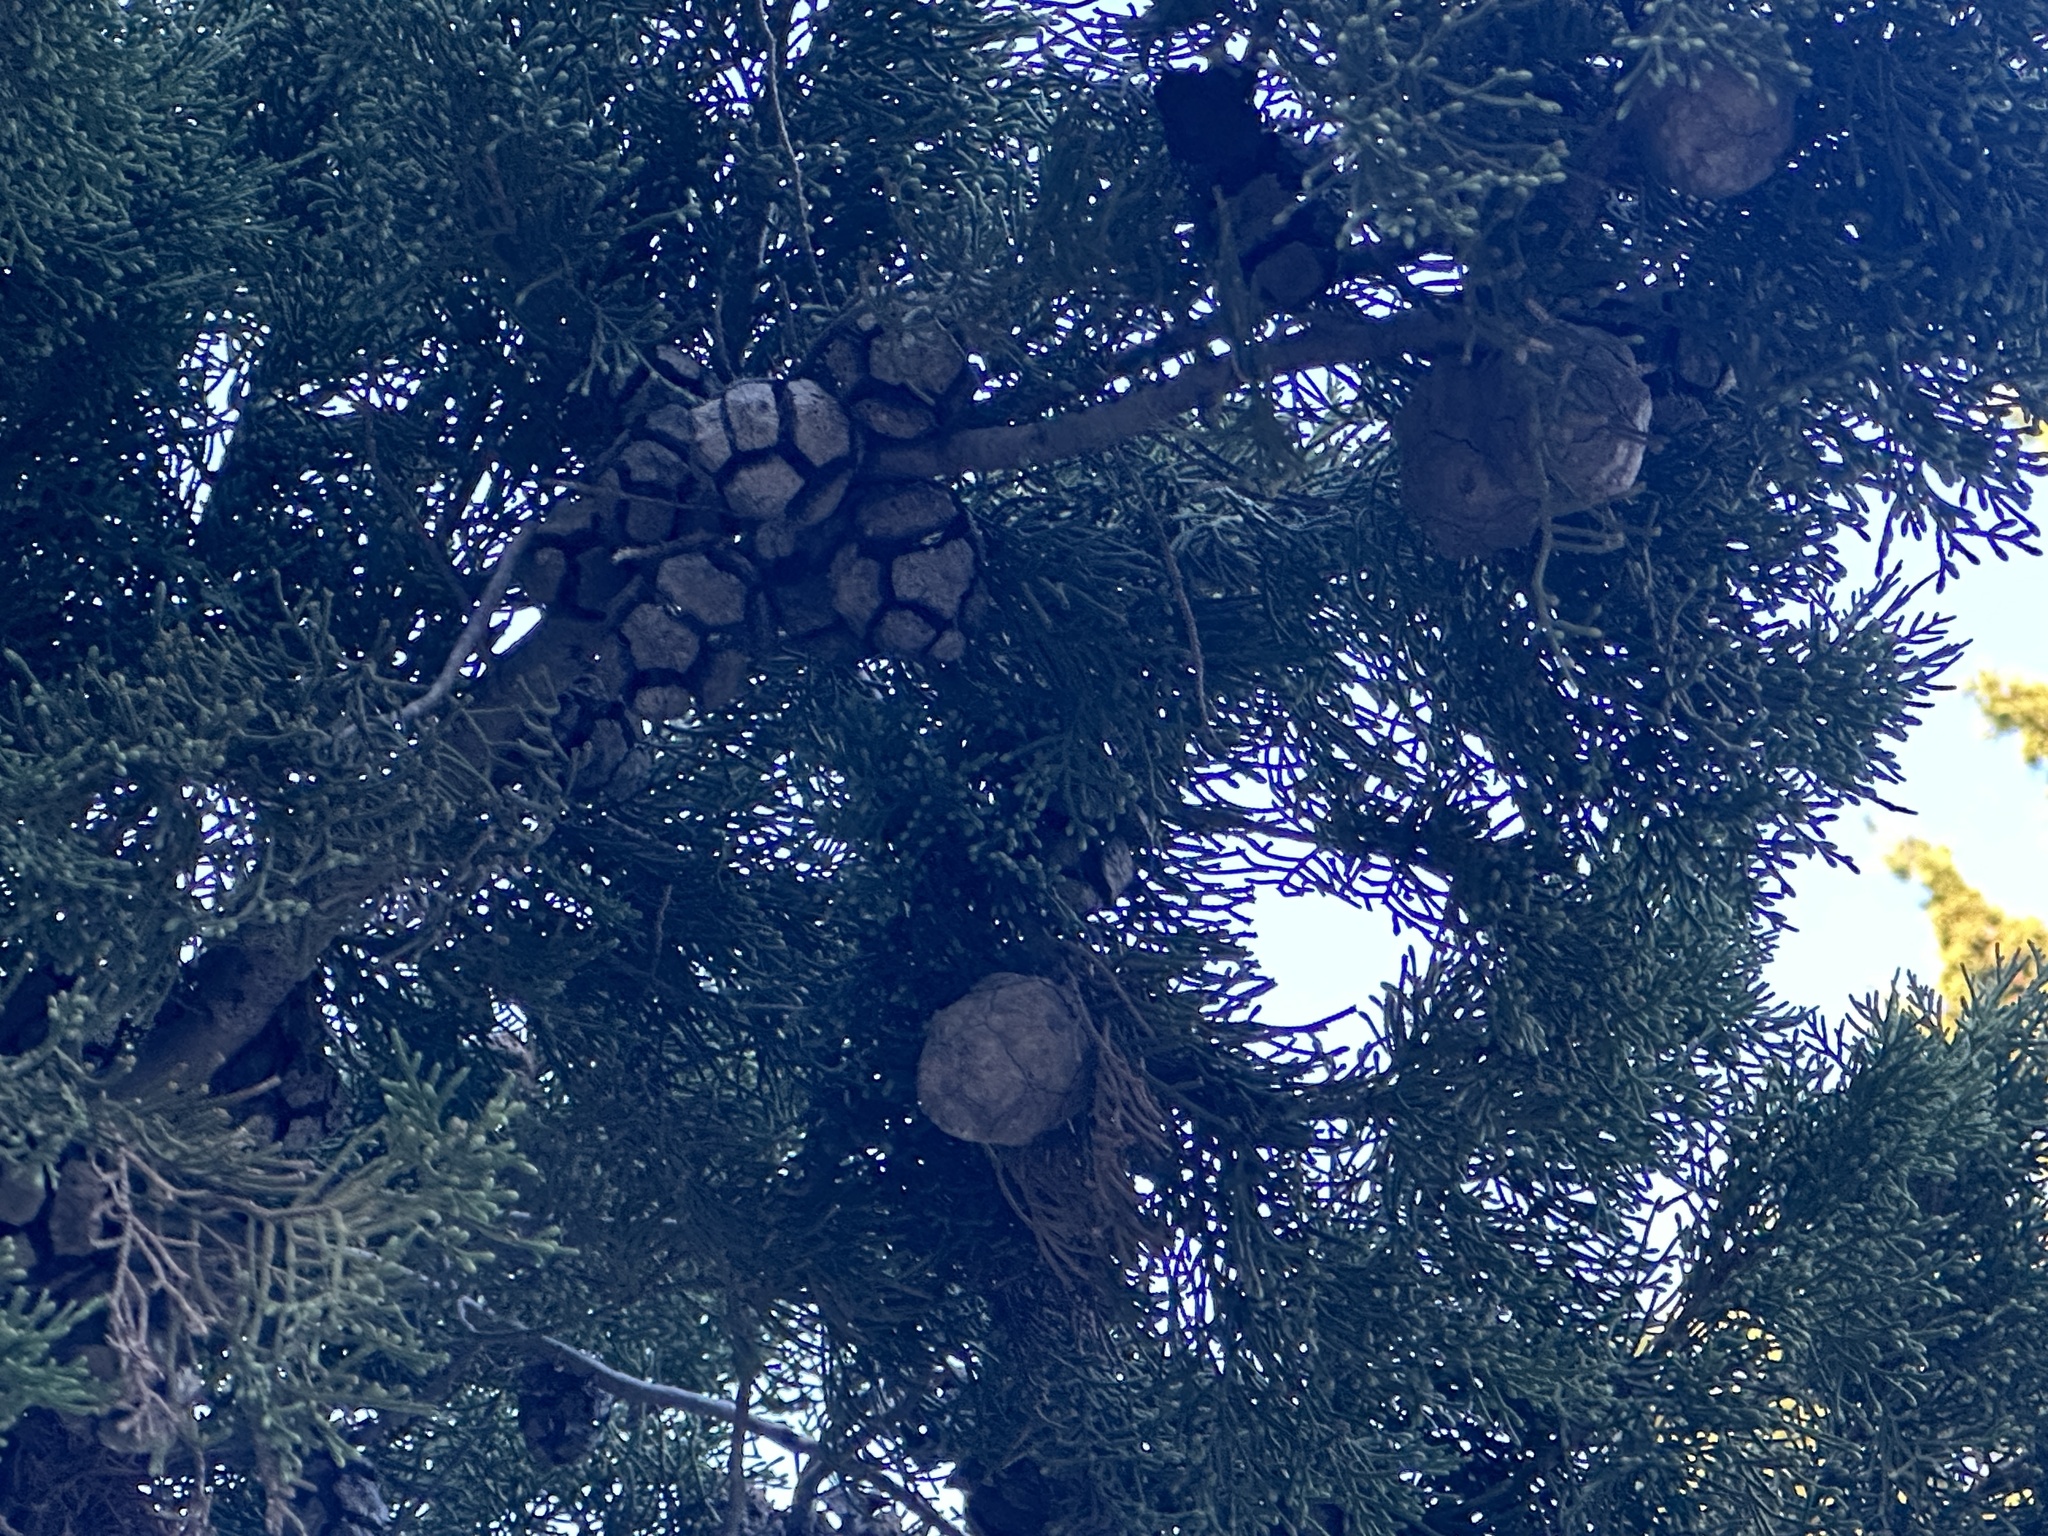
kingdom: Plantae
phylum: Tracheophyta
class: Pinopsida
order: Pinales
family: Cupressaceae
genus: Cupressus
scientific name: Cupressus sempervirens
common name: Italian cypress
